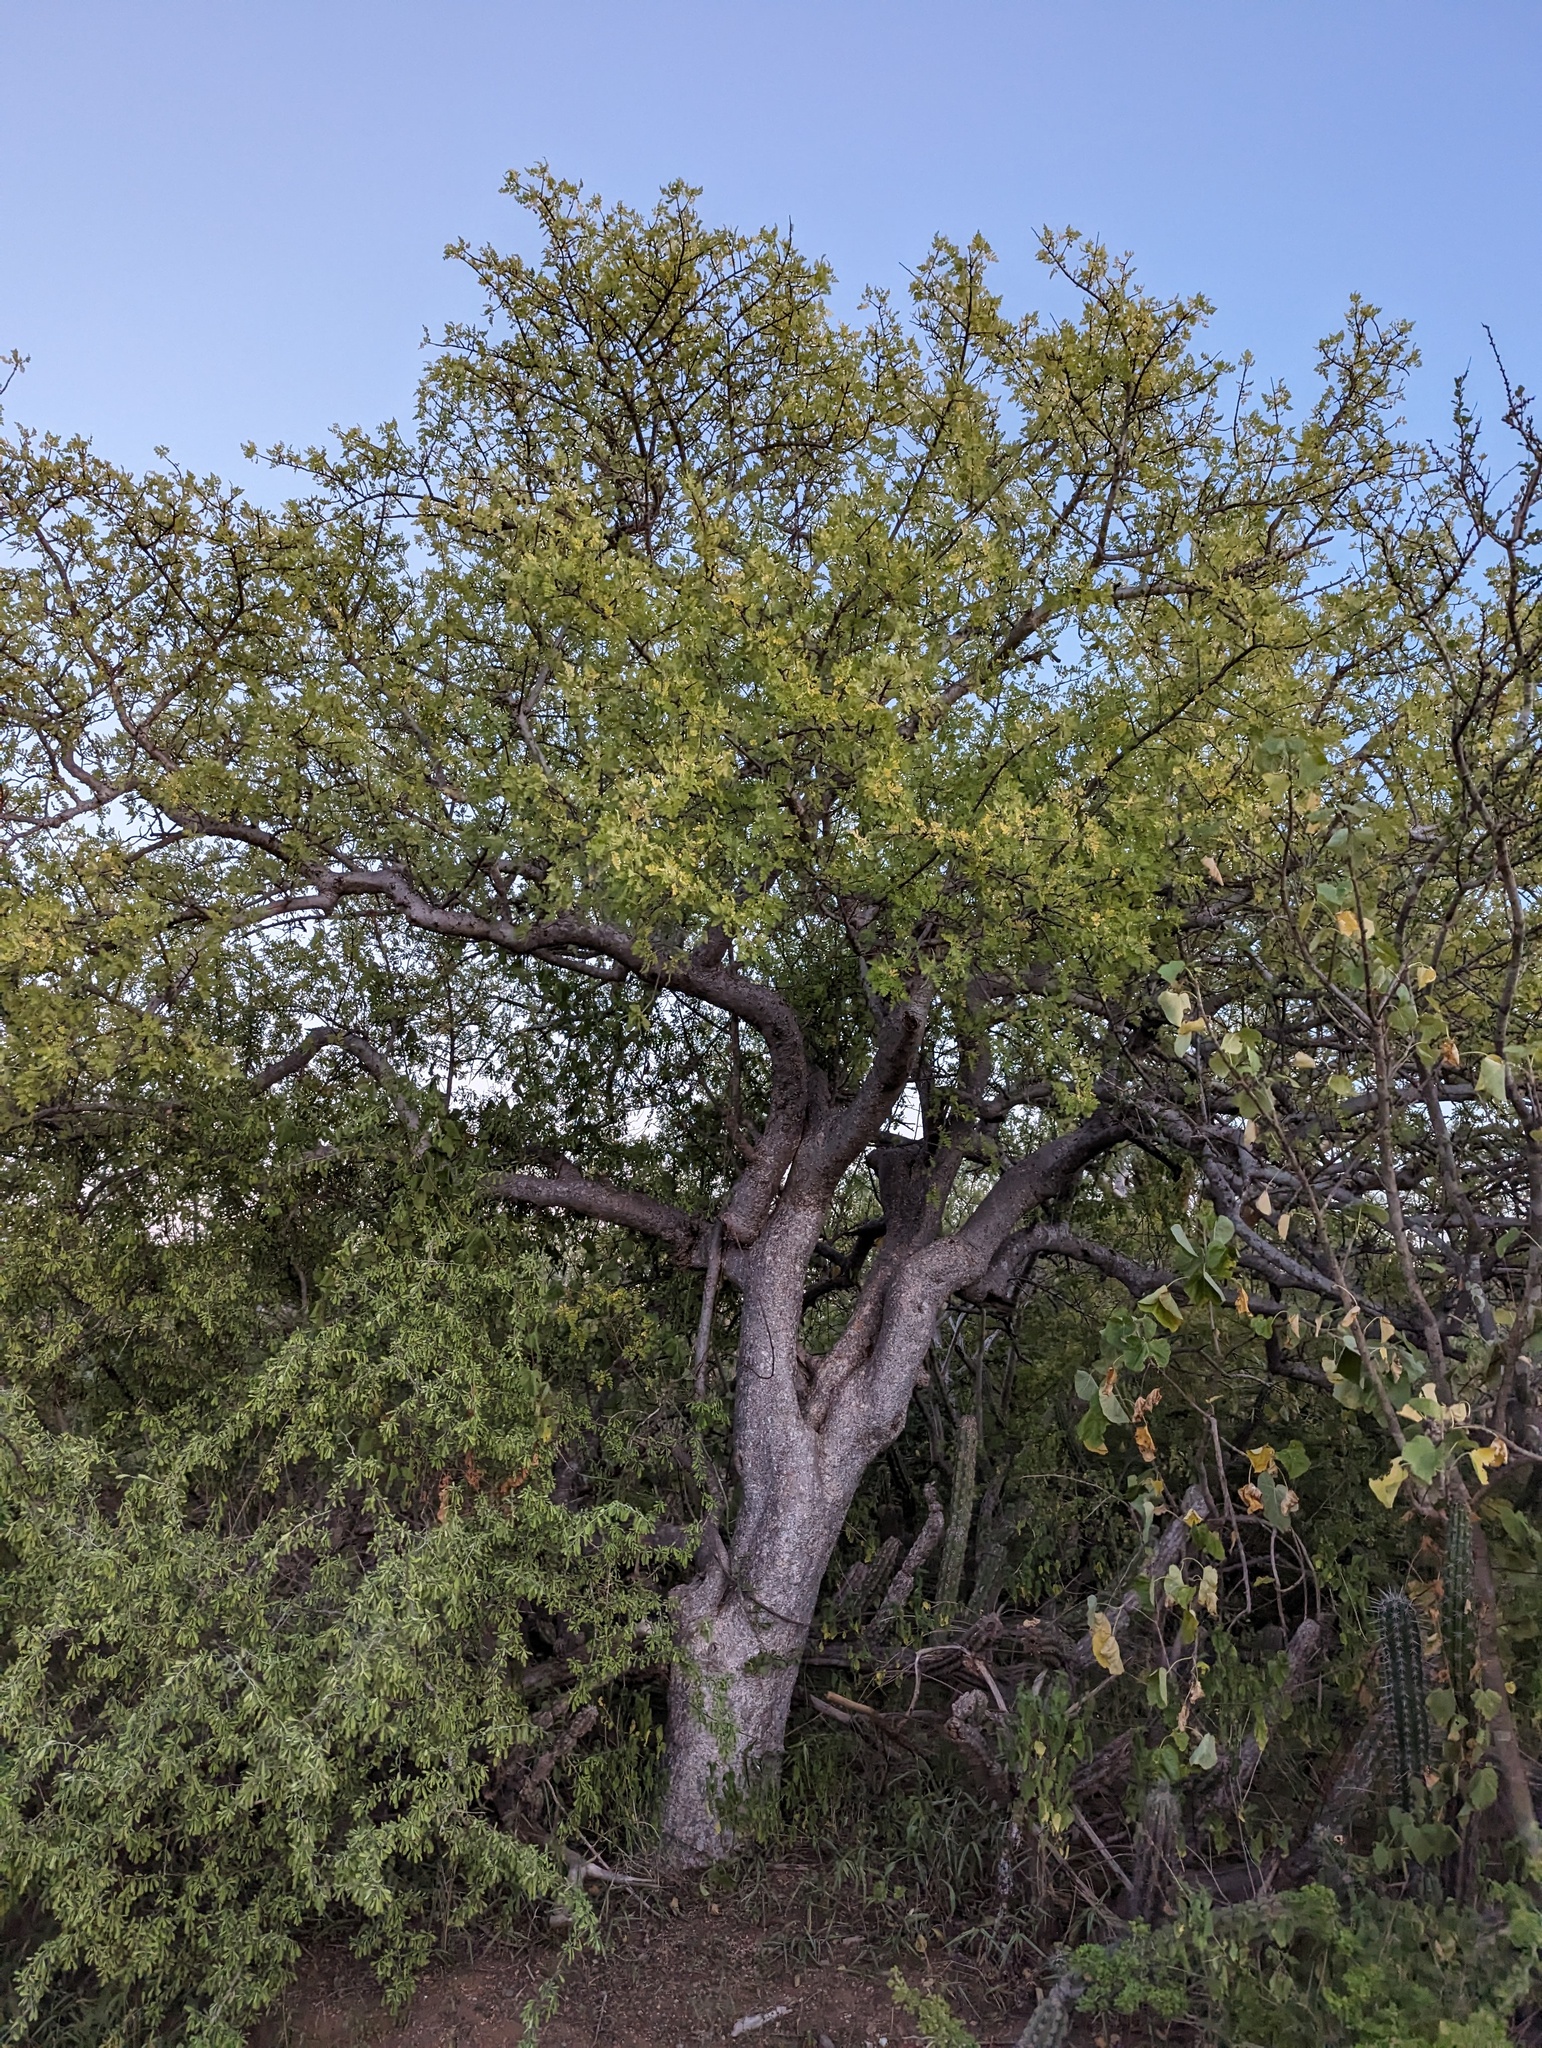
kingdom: Plantae
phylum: Tracheophyta
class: Magnoliopsida
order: Sapindales
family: Burseraceae
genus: Bursera
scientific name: Bursera filicifolia
